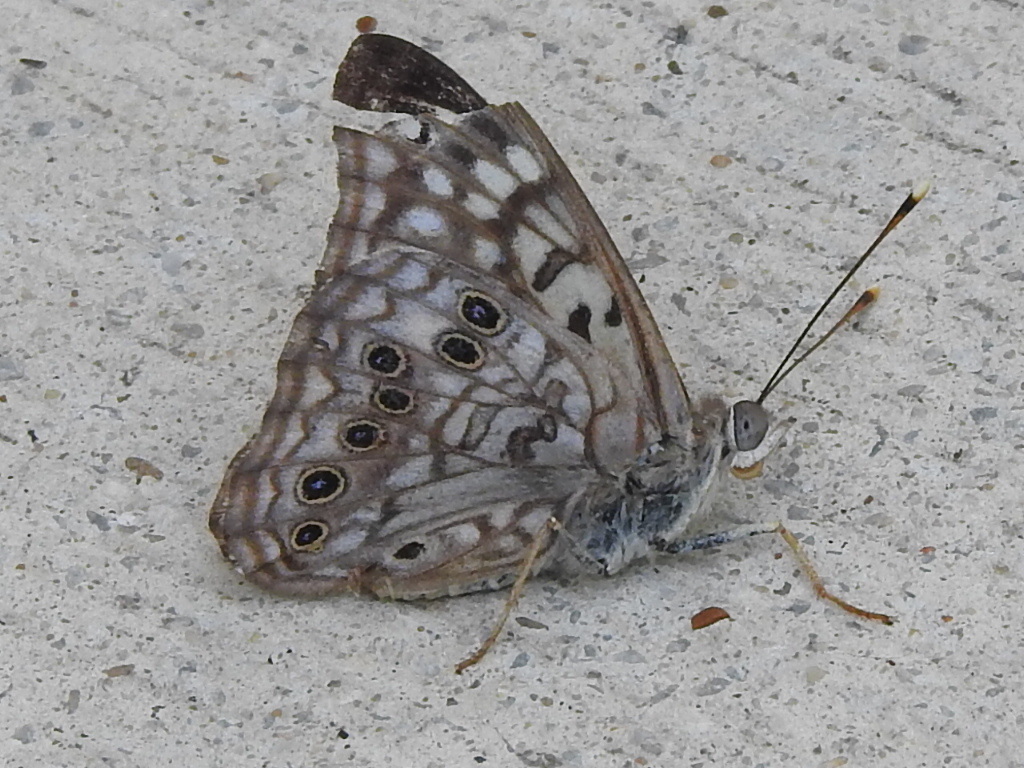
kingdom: Animalia
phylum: Arthropoda
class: Insecta
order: Lepidoptera
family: Nymphalidae
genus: Asterocampa
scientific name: Asterocampa celtis
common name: Hackberry emperor
